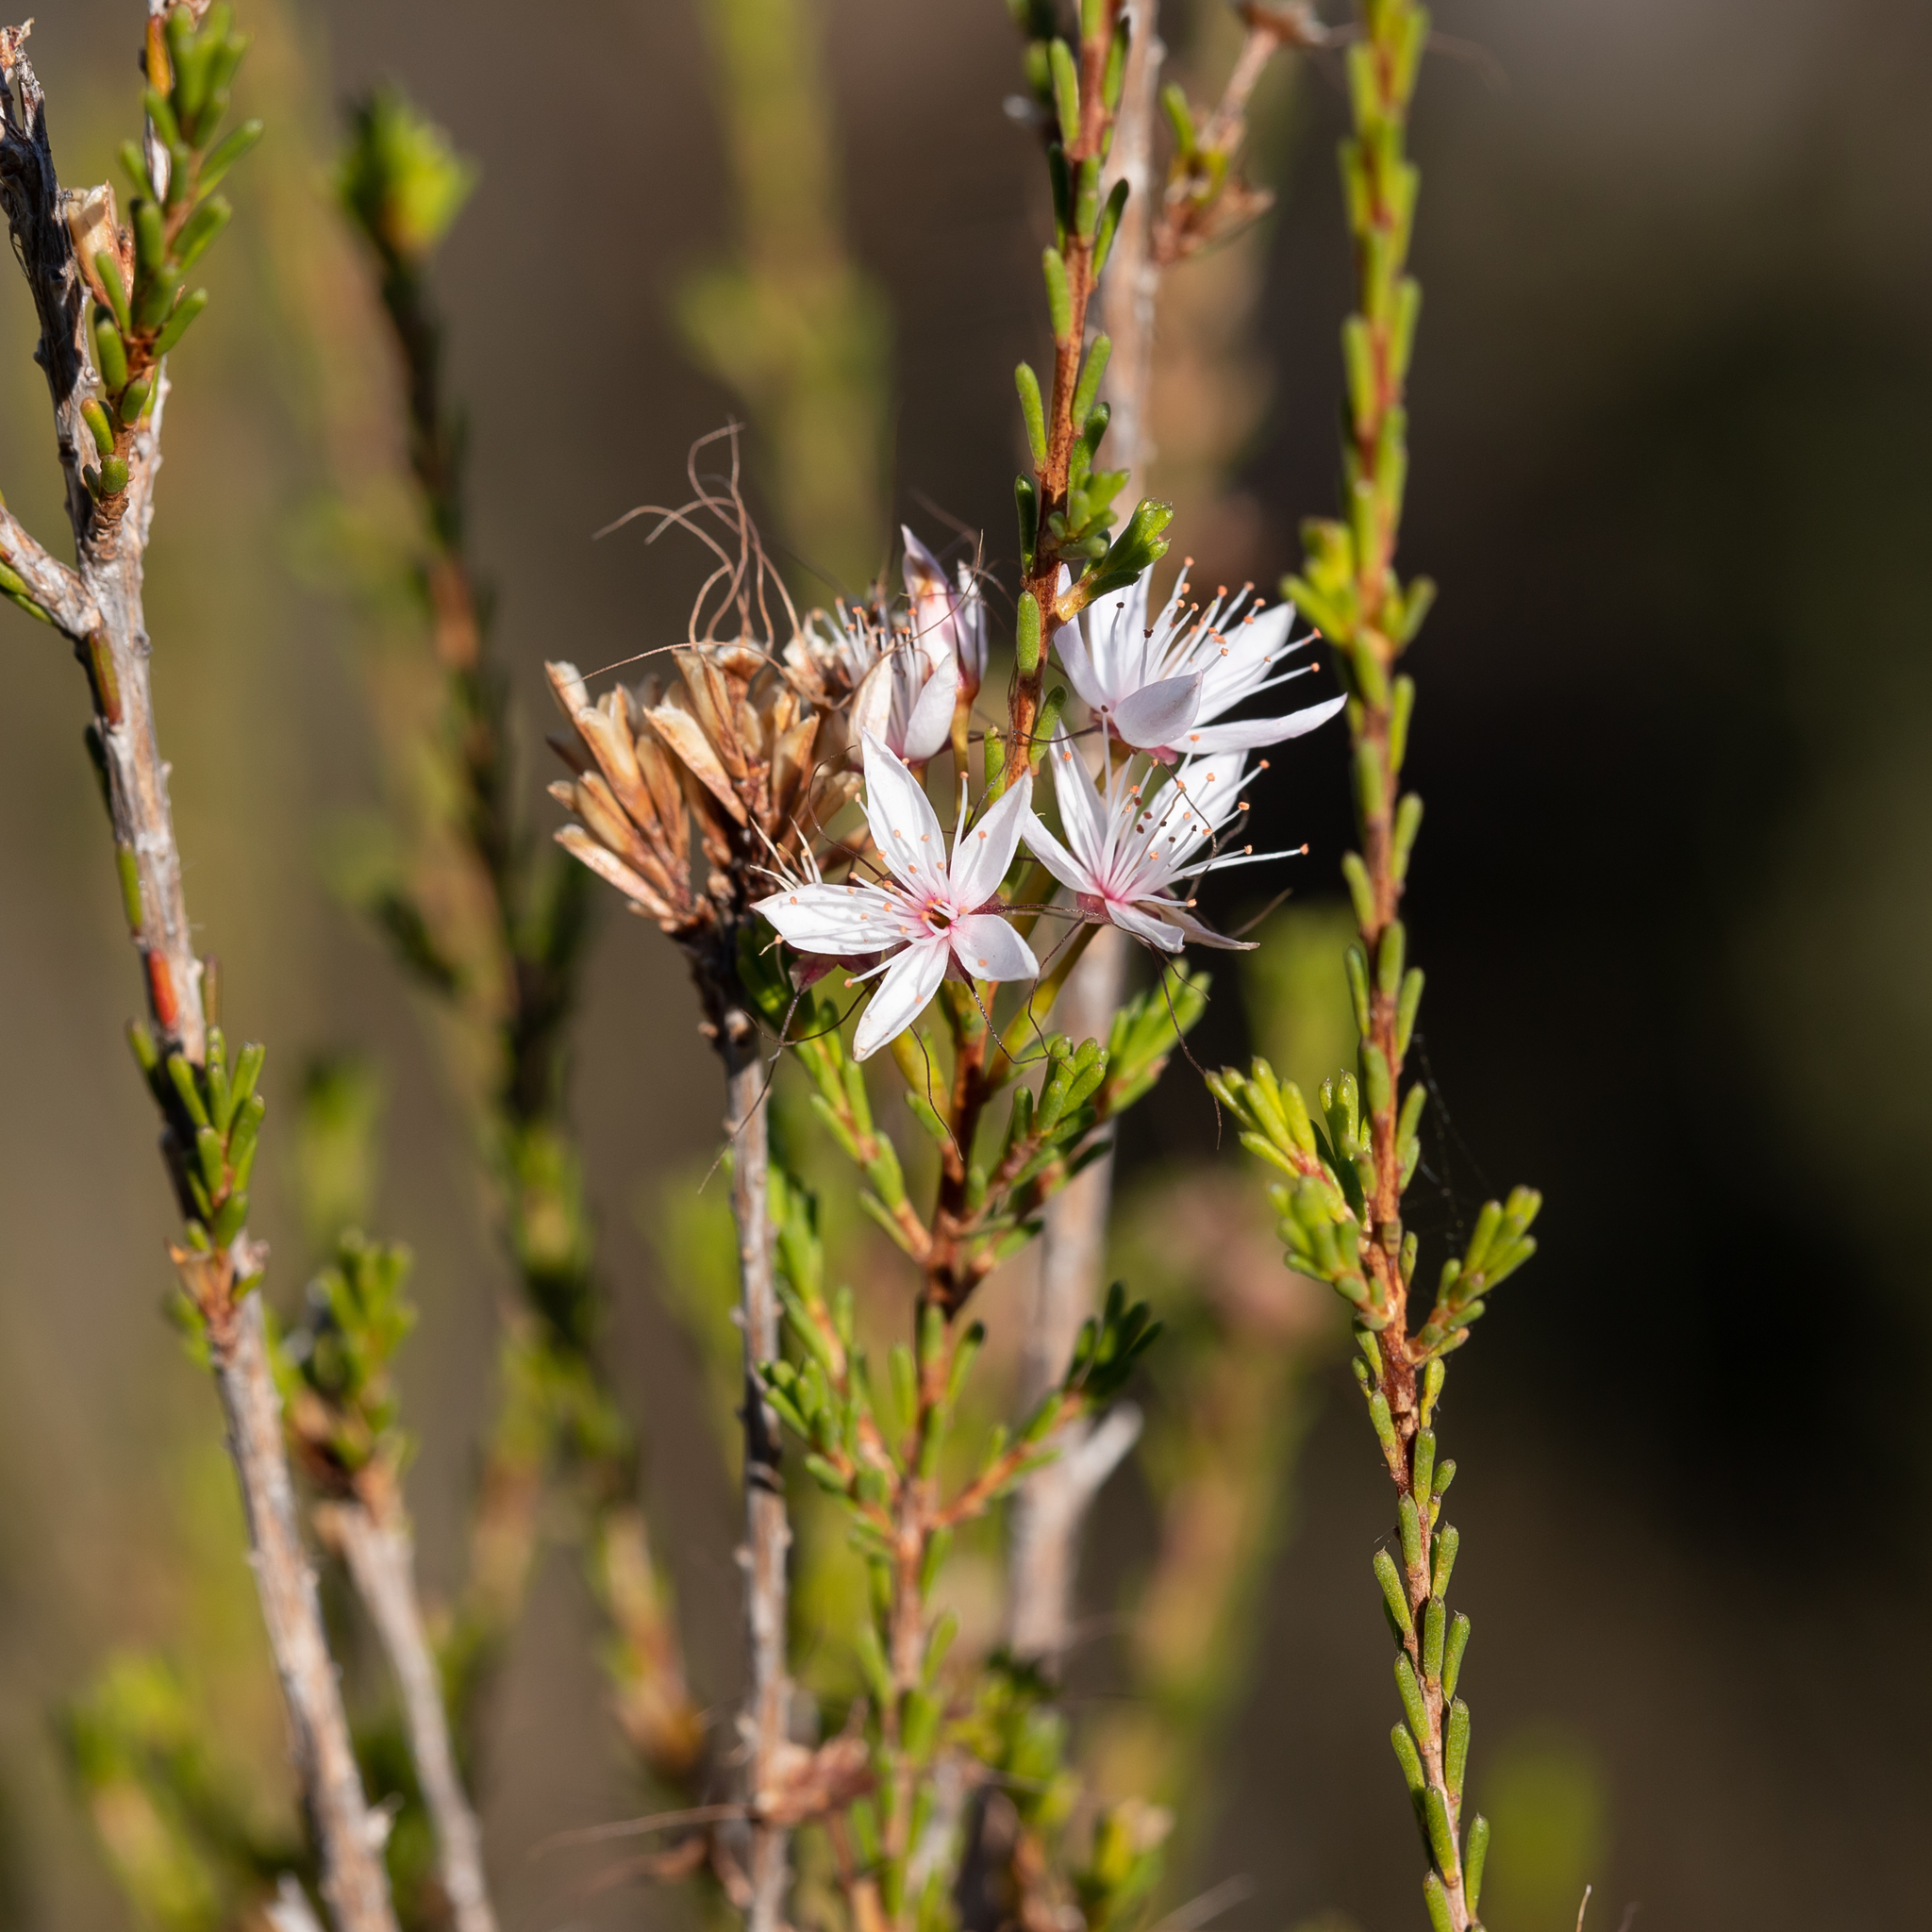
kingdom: Plantae
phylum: Tracheophyta
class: Magnoliopsida
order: Myrtales
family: Myrtaceae
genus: Calytrix
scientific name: Calytrix tetragona
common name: Common fringe myrtle
